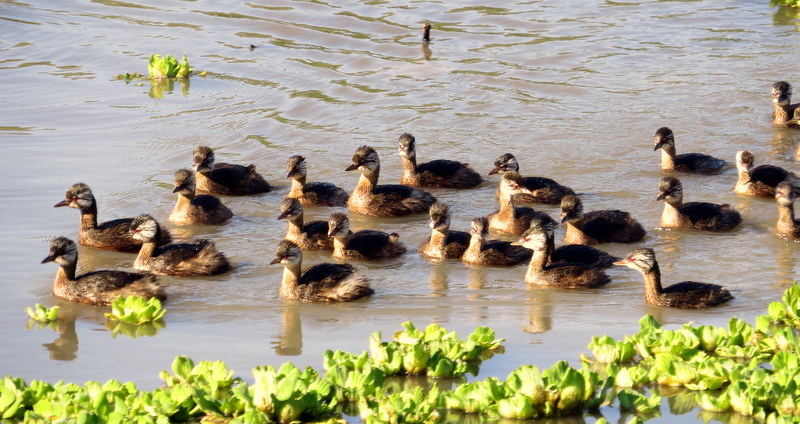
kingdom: Animalia
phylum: Chordata
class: Aves
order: Podicipediformes
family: Podicipedidae
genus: Rollandia
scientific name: Rollandia rolland
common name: White-tufted grebe
